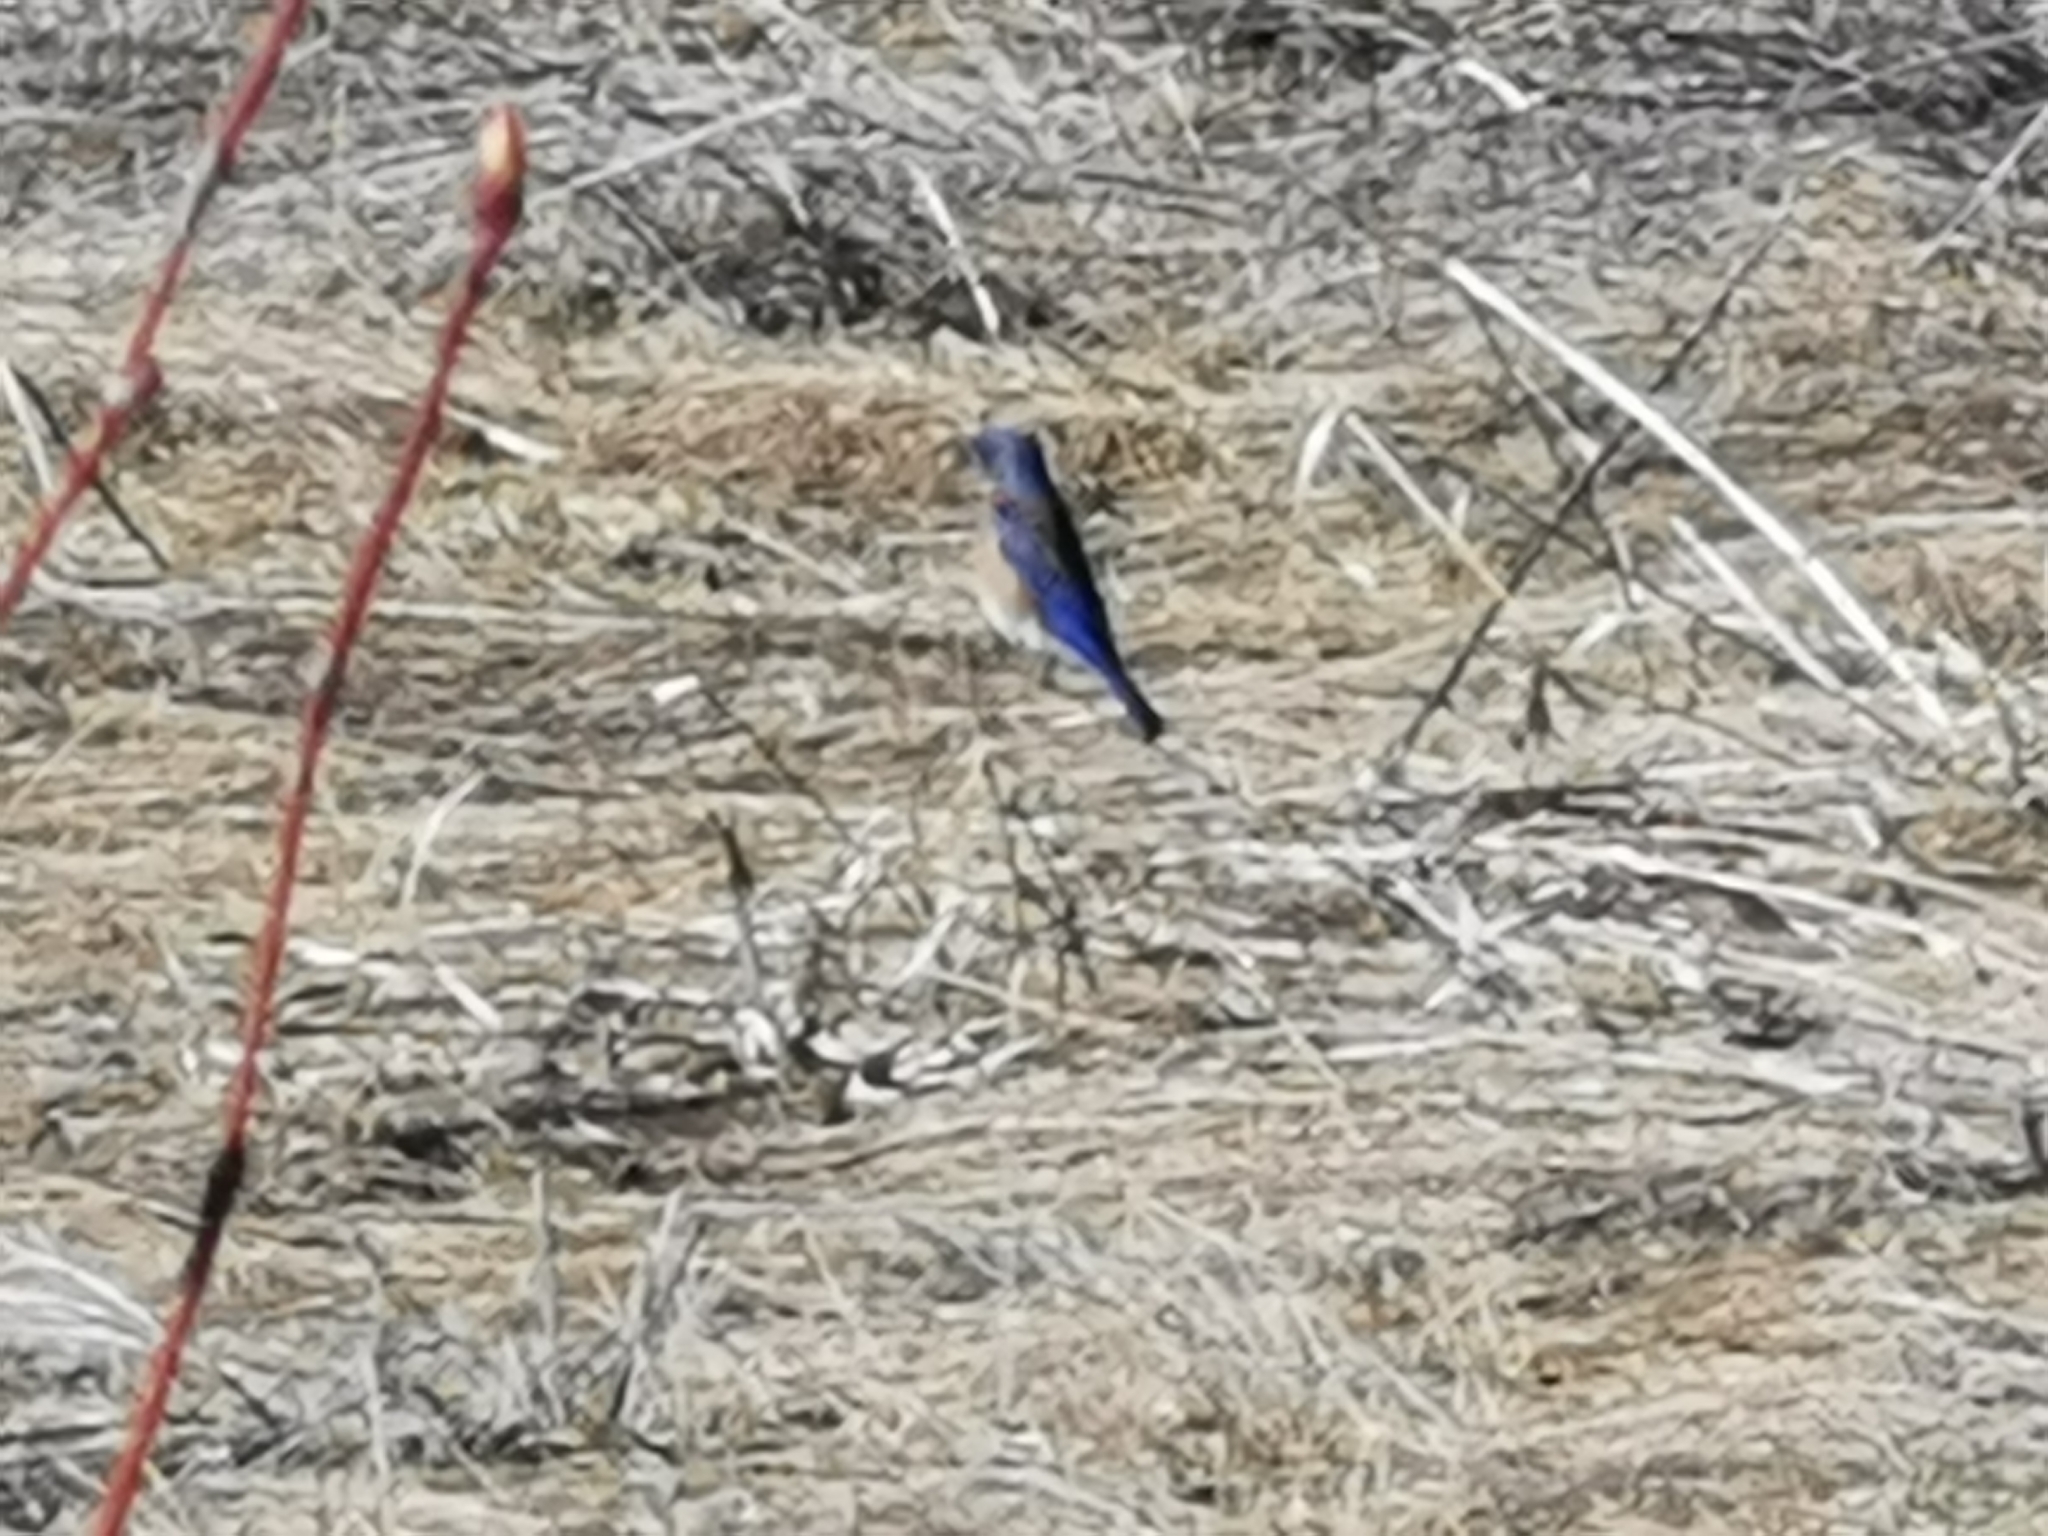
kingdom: Animalia
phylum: Chordata
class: Aves
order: Passeriformes
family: Turdidae
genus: Sialia
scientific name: Sialia mexicana
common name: Western bluebird
